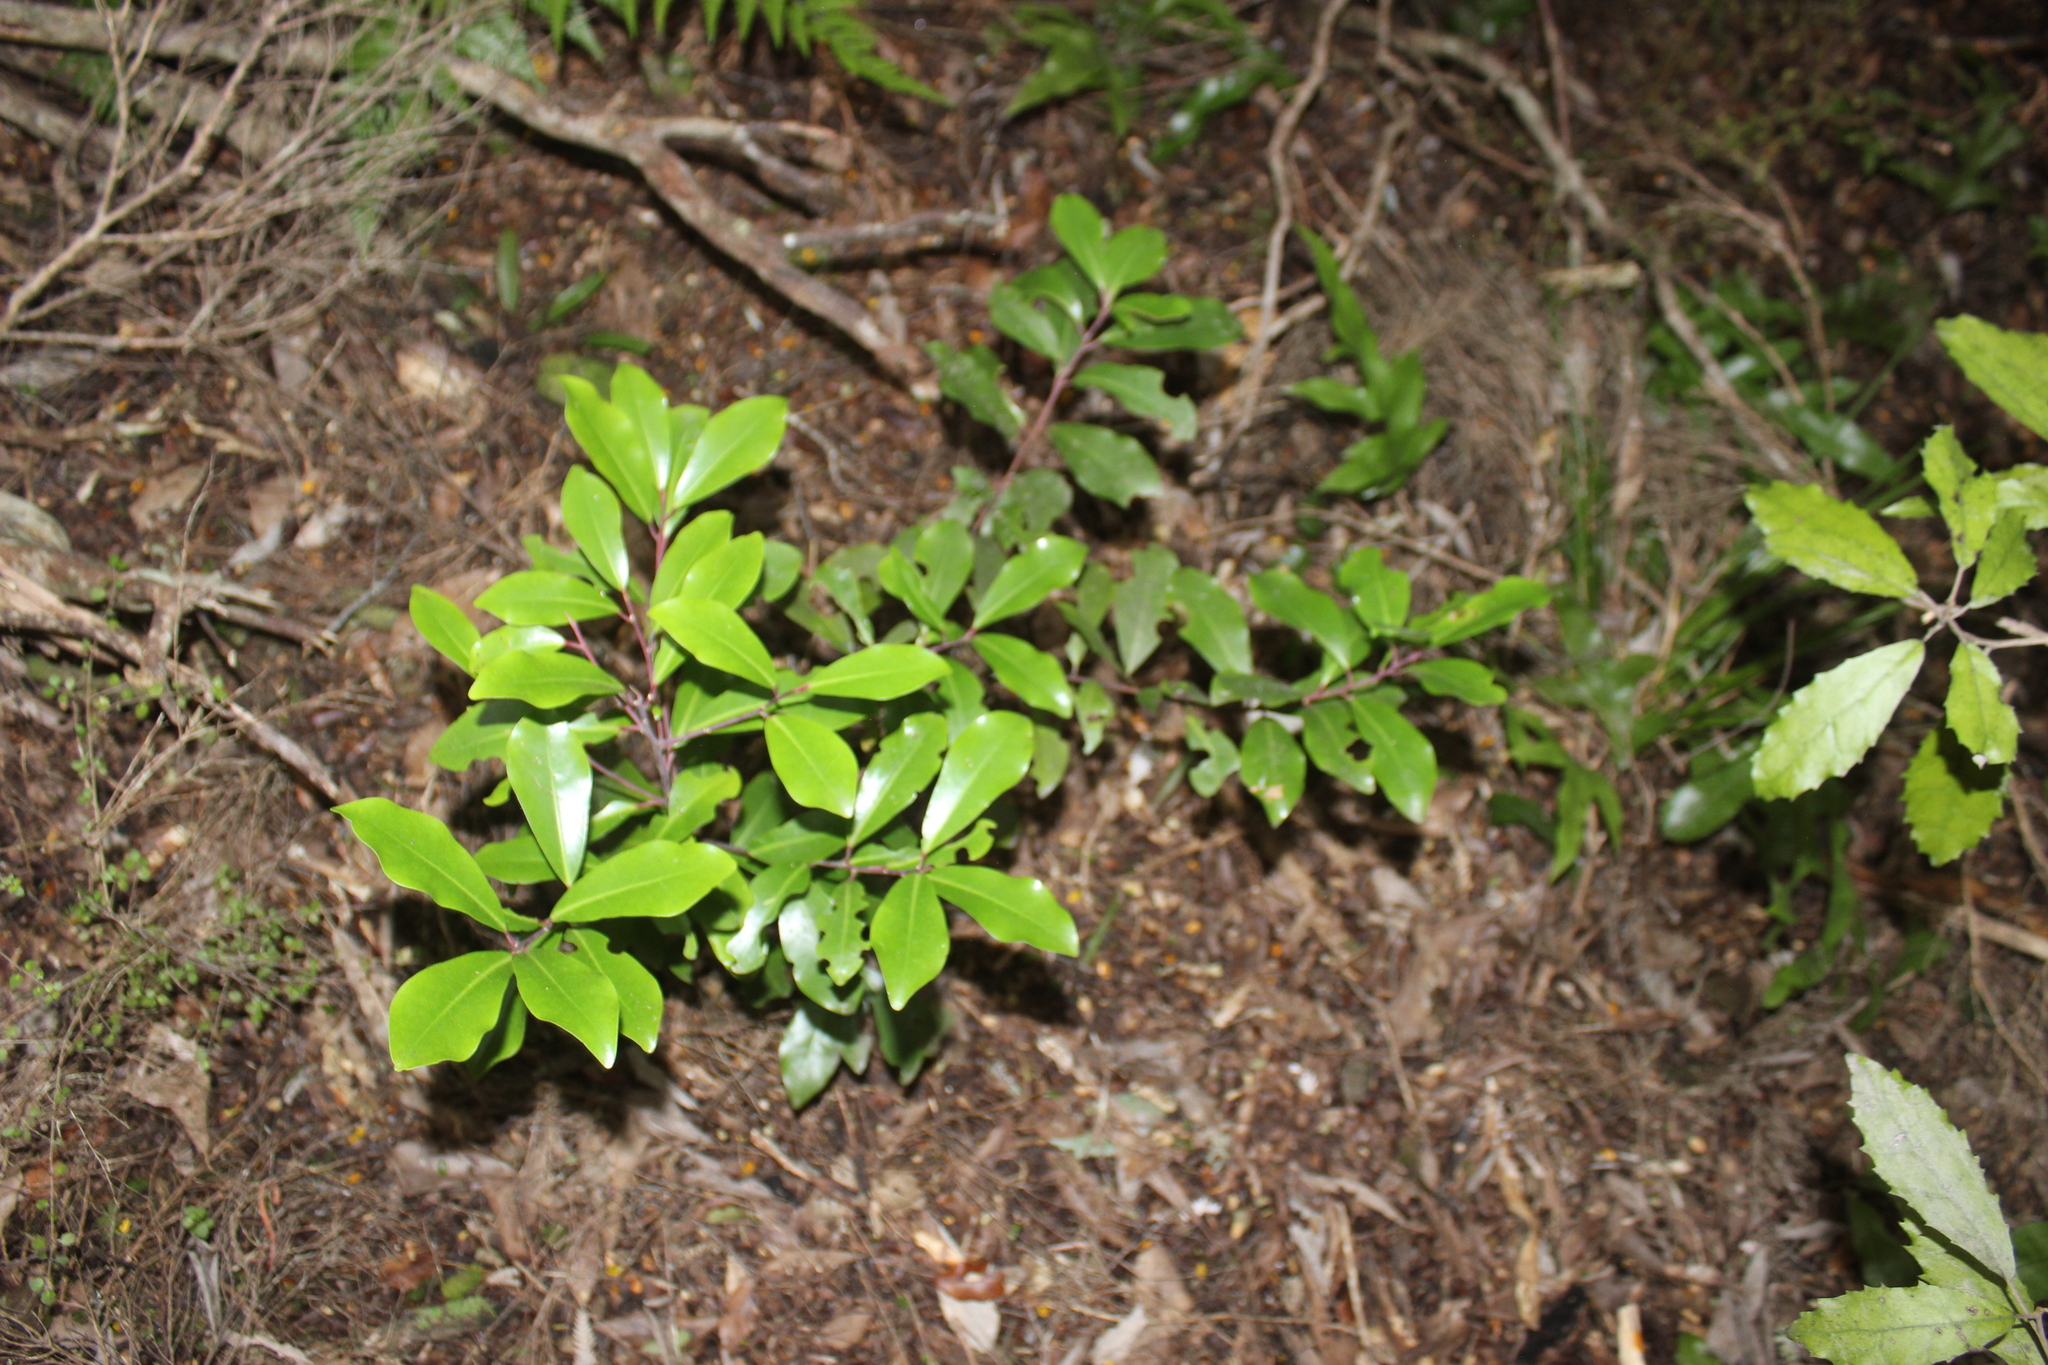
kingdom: Plantae
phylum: Tracheophyta
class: Magnoliopsida
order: Canellales
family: Winteraceae
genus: Pseudowintera
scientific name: Pseudowintera axillaris
